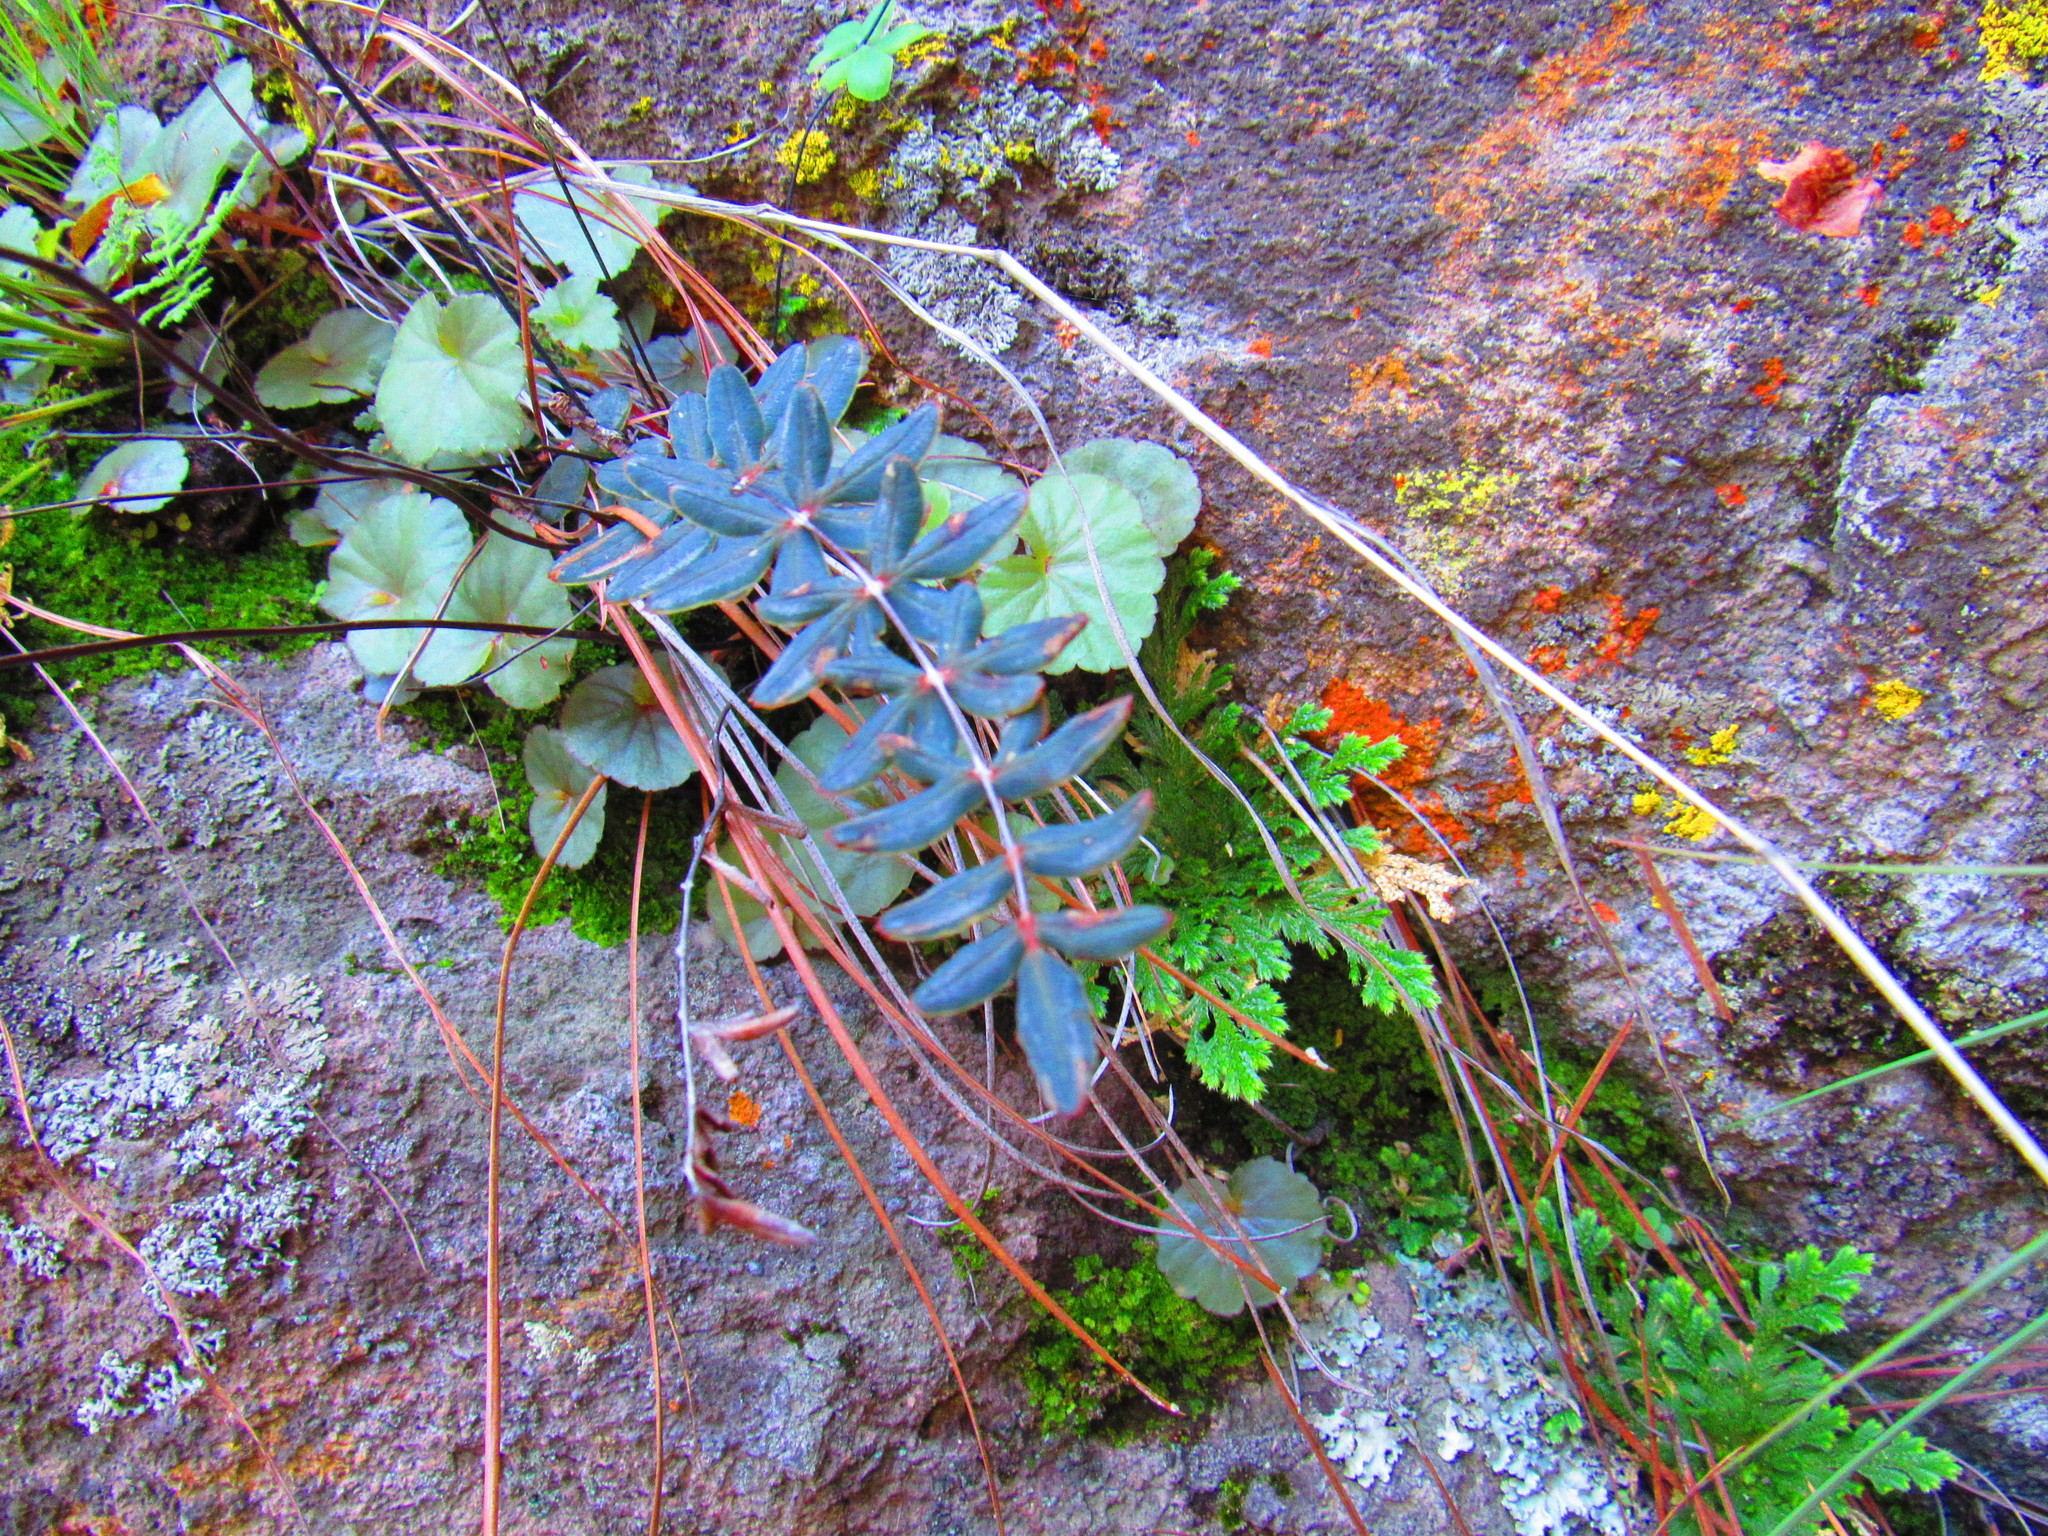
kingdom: Plantae
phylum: Tracheophyta
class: Polypodiopsida
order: Polypodiales
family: Pteridaceae
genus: Pellaea
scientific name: Pellaea ternifolia
